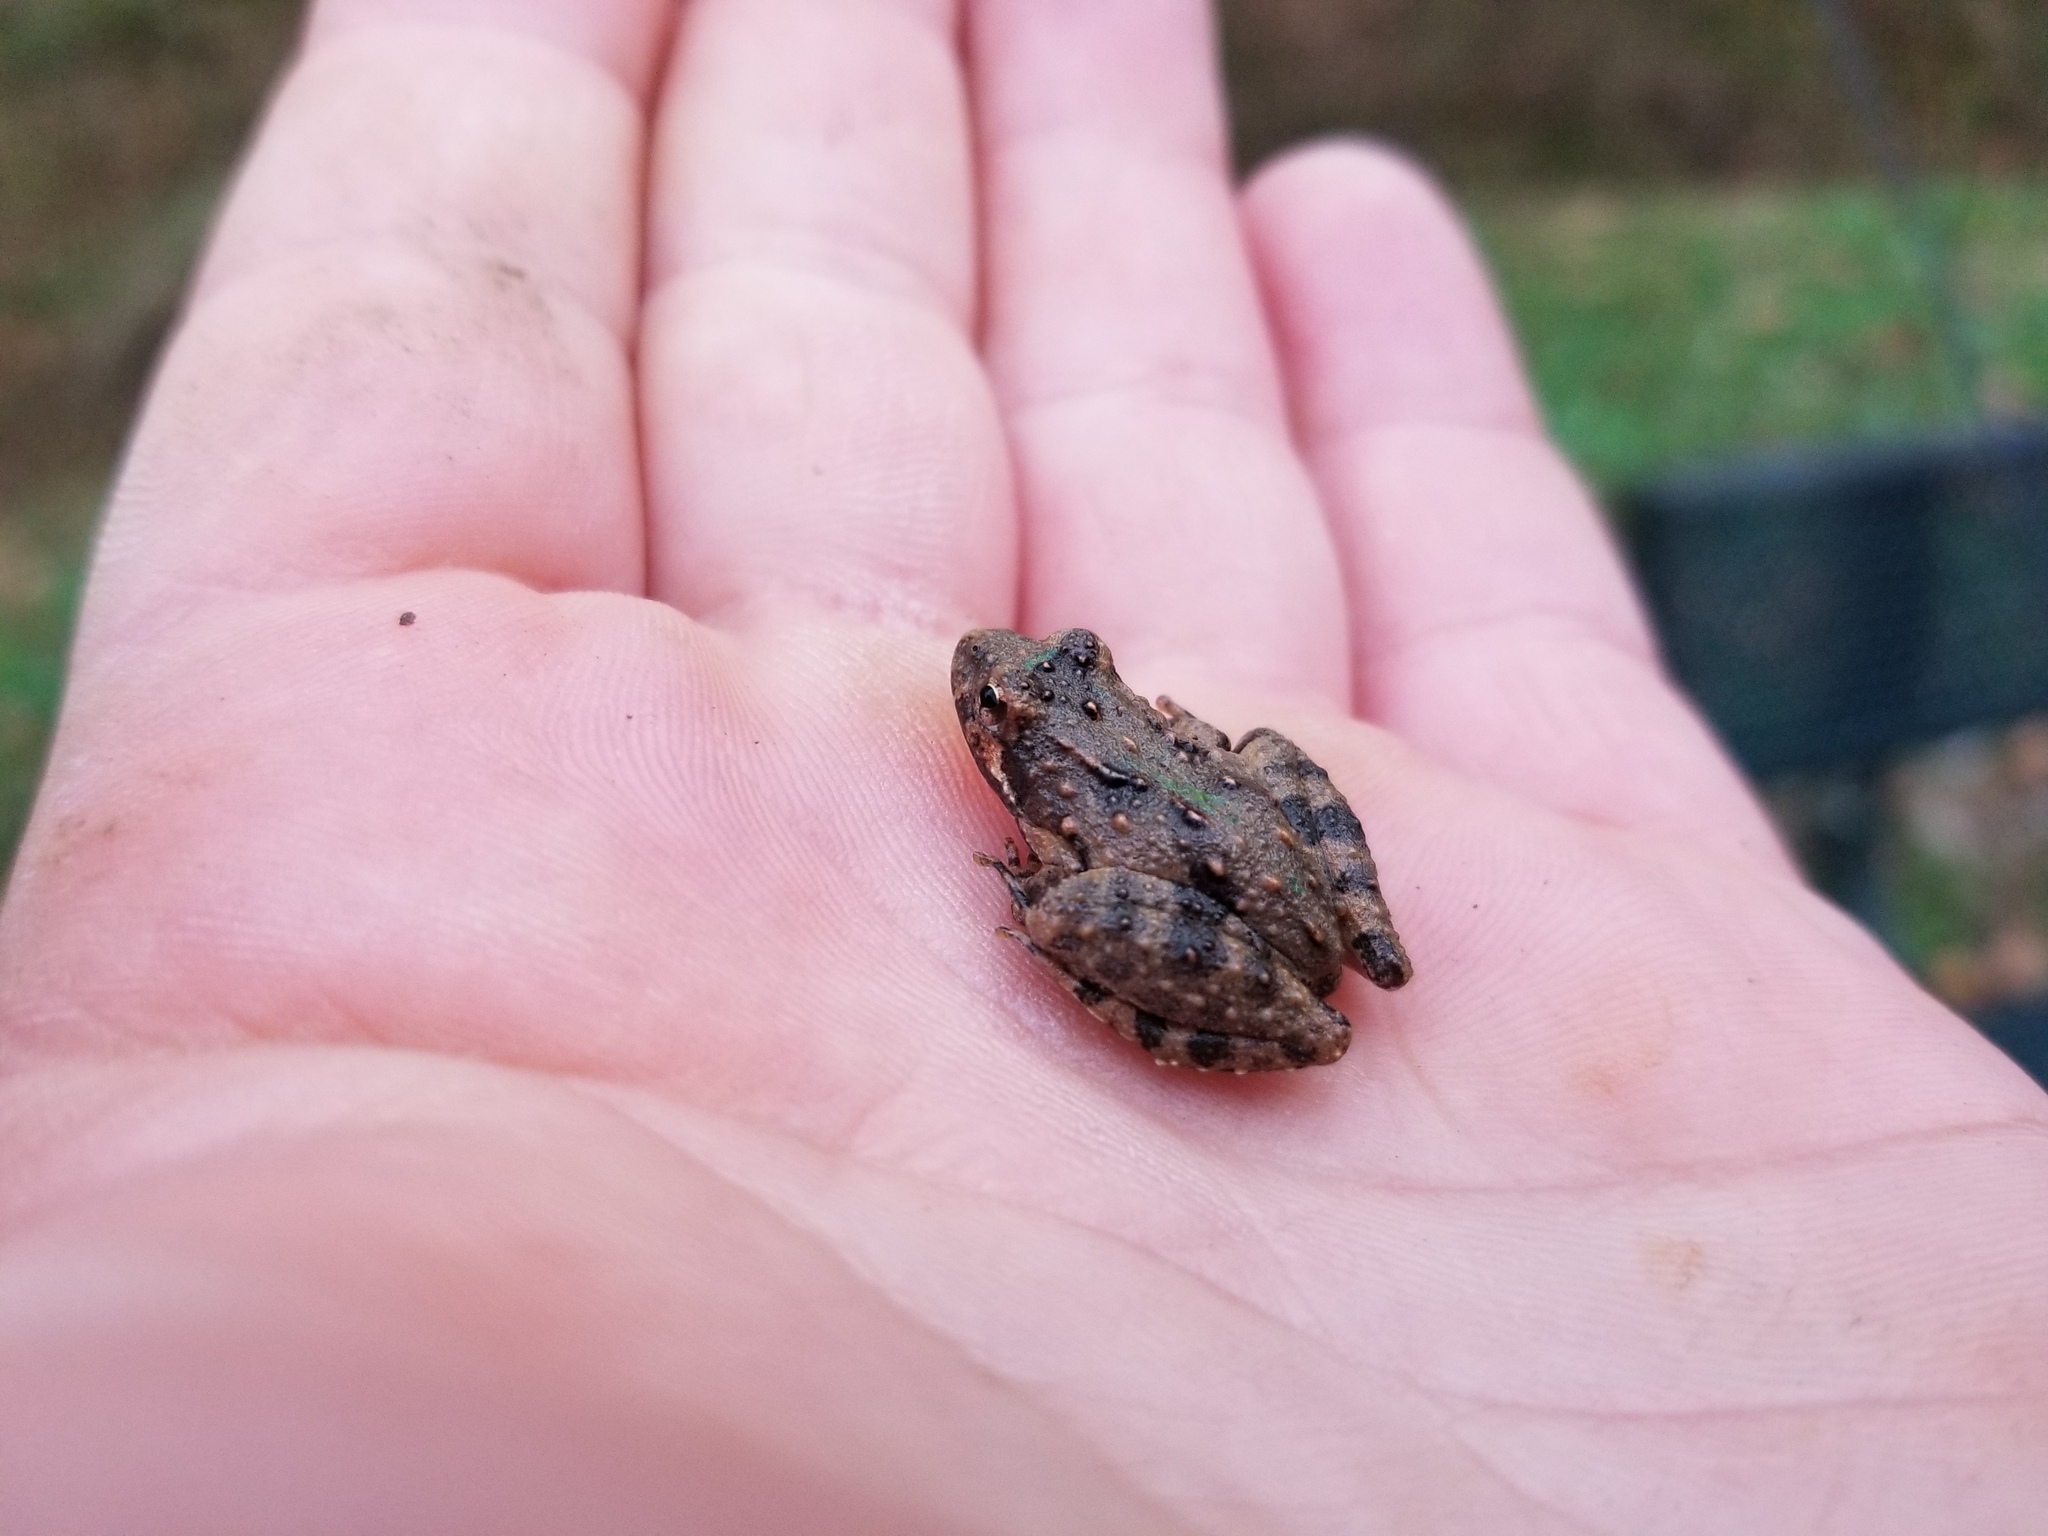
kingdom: Animalia
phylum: Chordata
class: Amphibia
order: Anura
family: Hylidae
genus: Acris
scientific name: Acris crepitans
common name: Northern cricket frog
